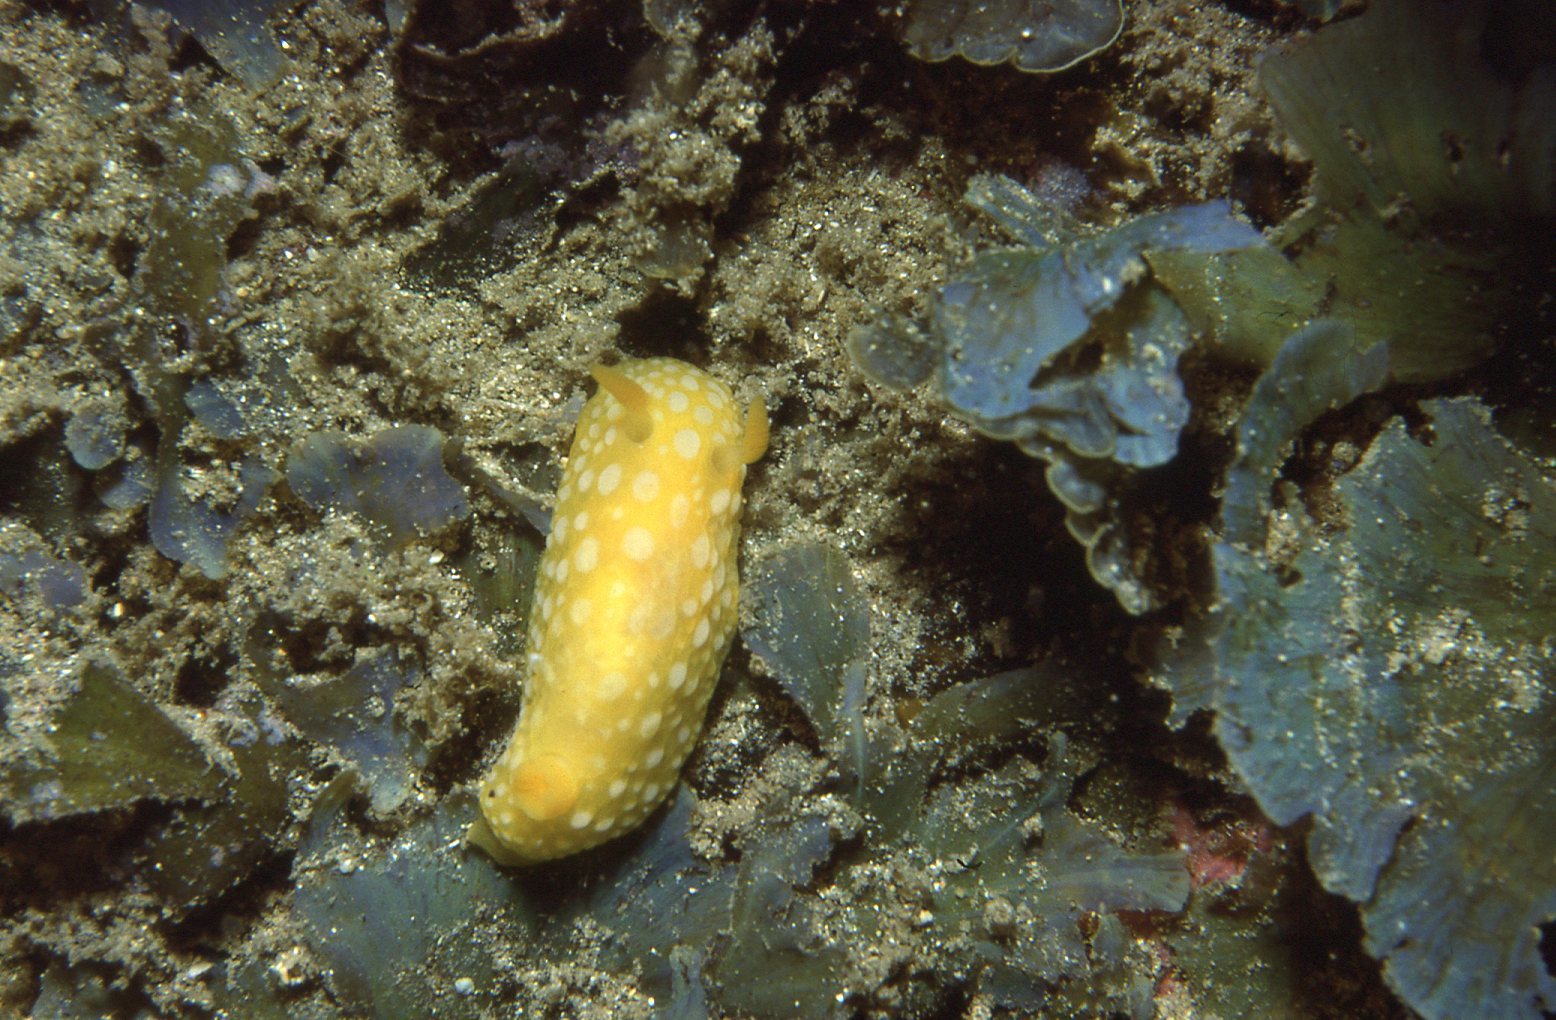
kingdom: Animalia
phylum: Mollusca
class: Gastropoda
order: Nudibranchia
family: Dorididae
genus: Doris
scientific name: Doris chrysoderma
